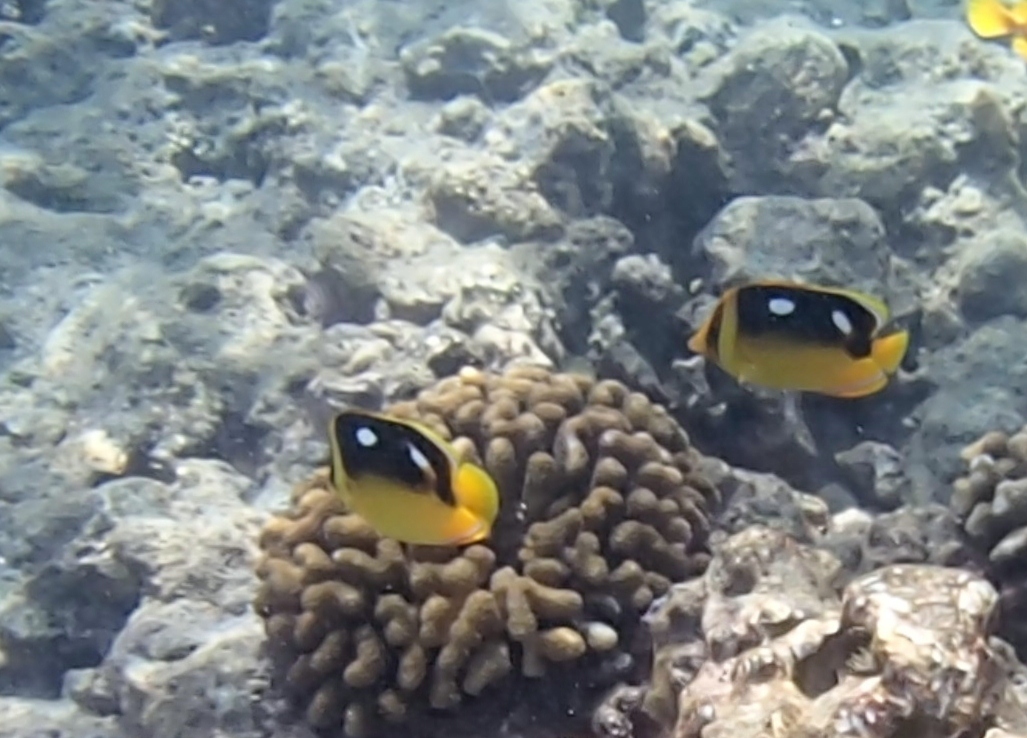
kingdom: Animalia
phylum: Chordata
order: Perciformes
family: Chaetodontidae
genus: Chaetodon
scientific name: Chaetodon quadrimaculatus
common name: Fourspot butterflyfish
